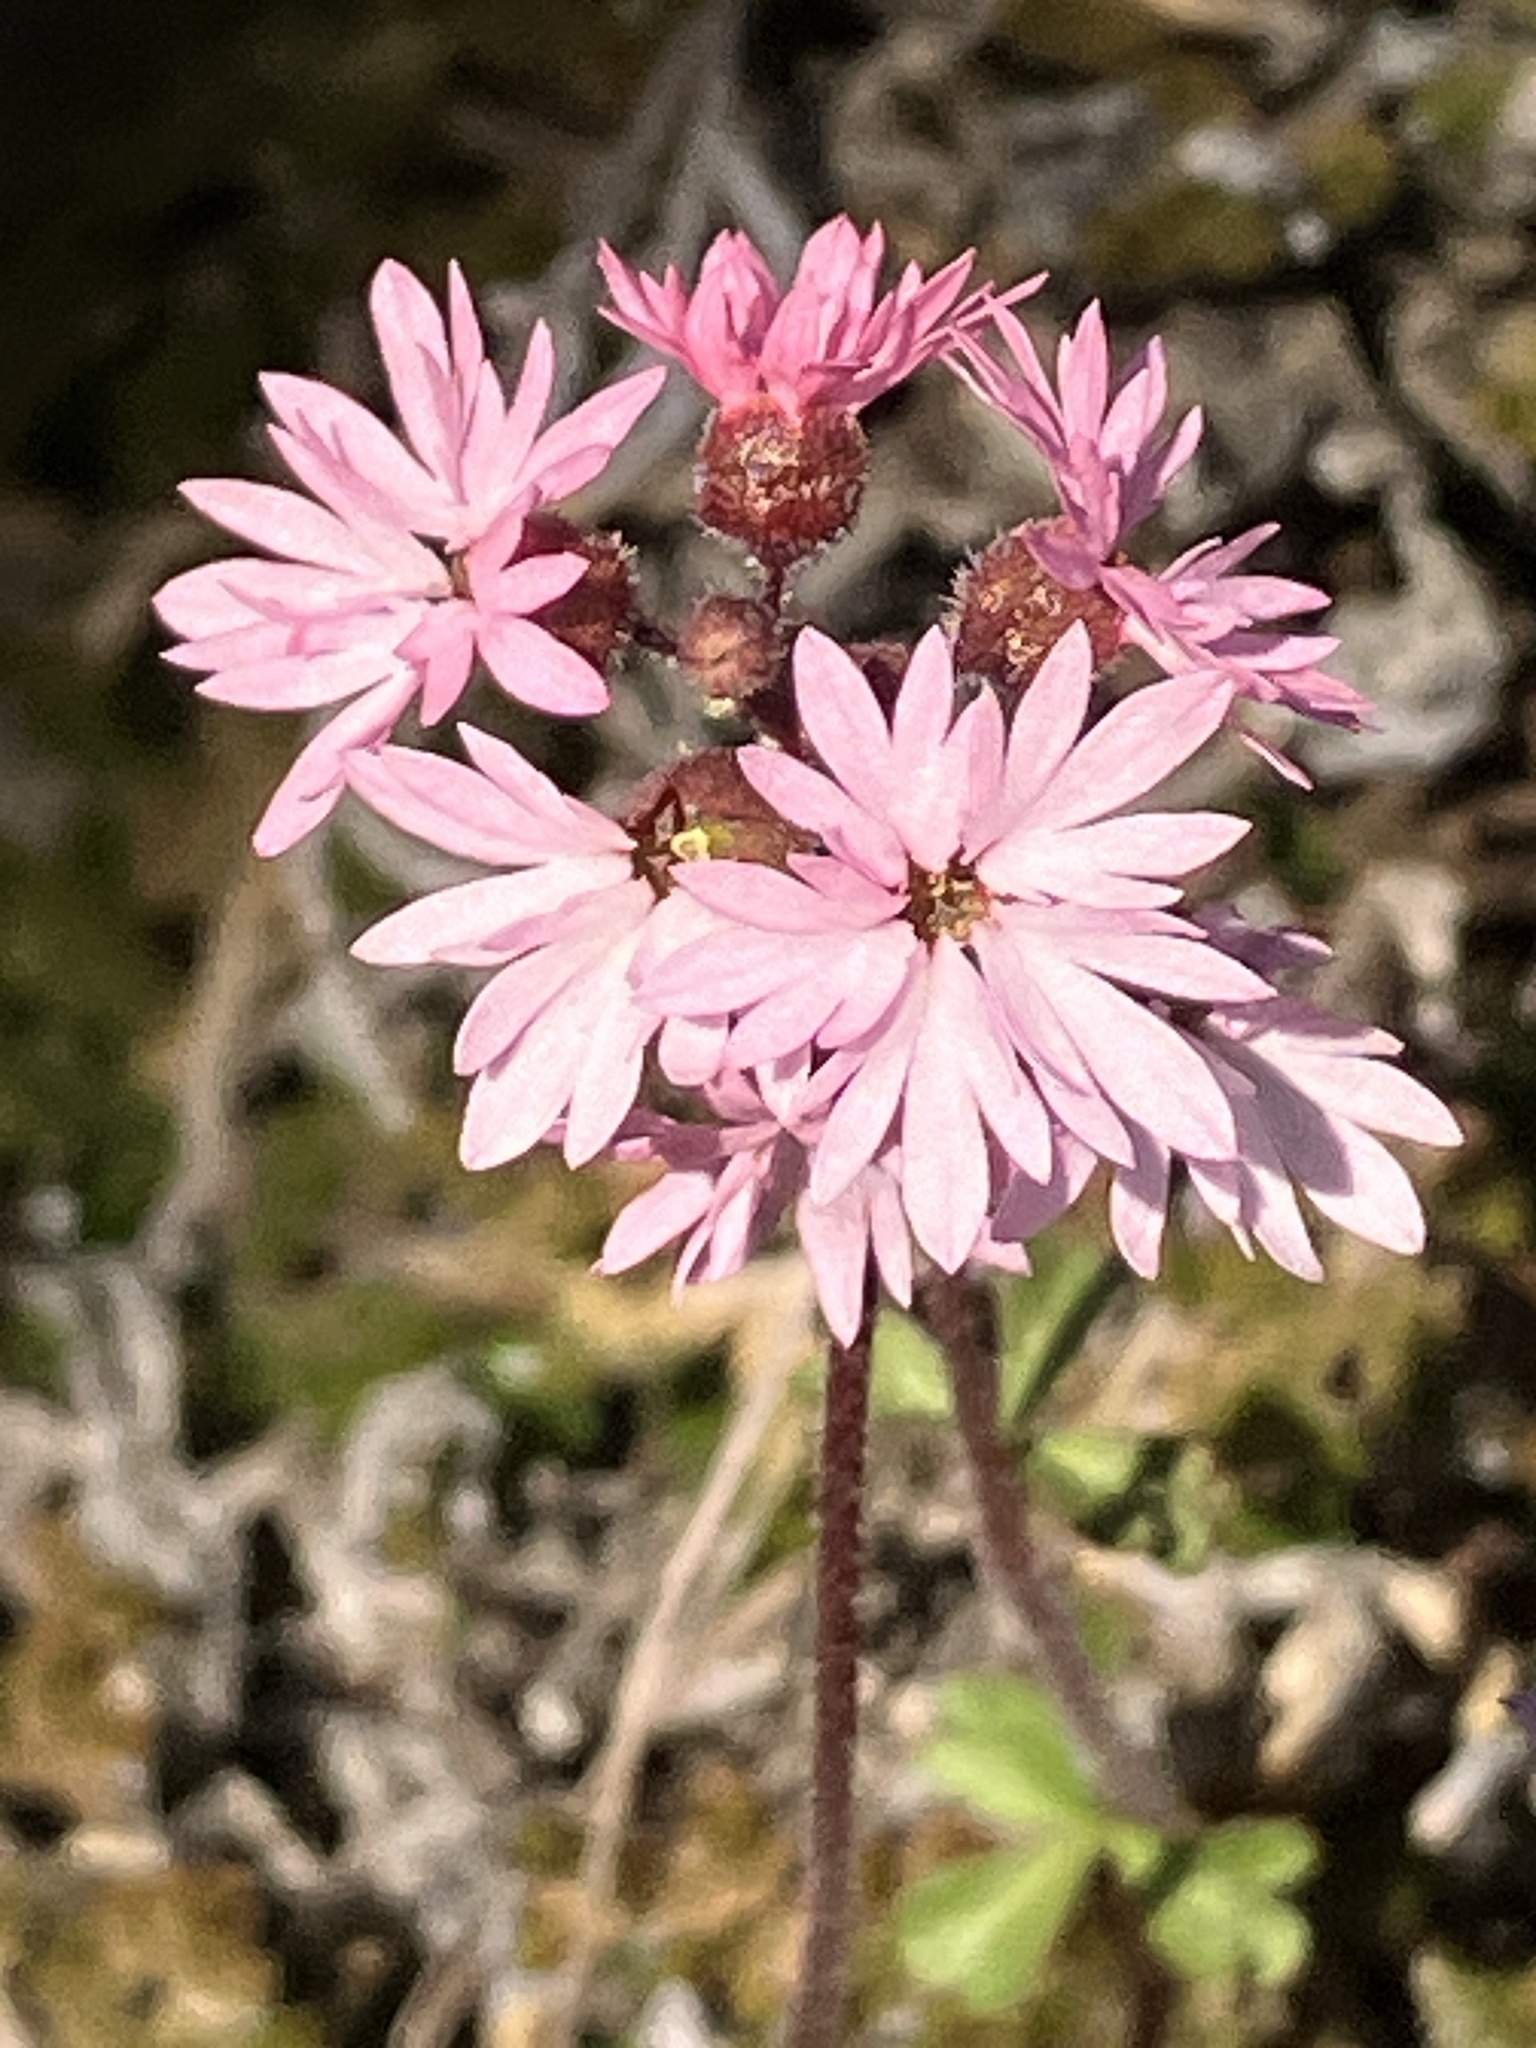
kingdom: Plantae
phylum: Tracheophyta
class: Magnoliopsida
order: Saxifragales
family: Saxifragaceae
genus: Lithophragma
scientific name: Lithophragma glabrum
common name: Bulbous prairie-star
